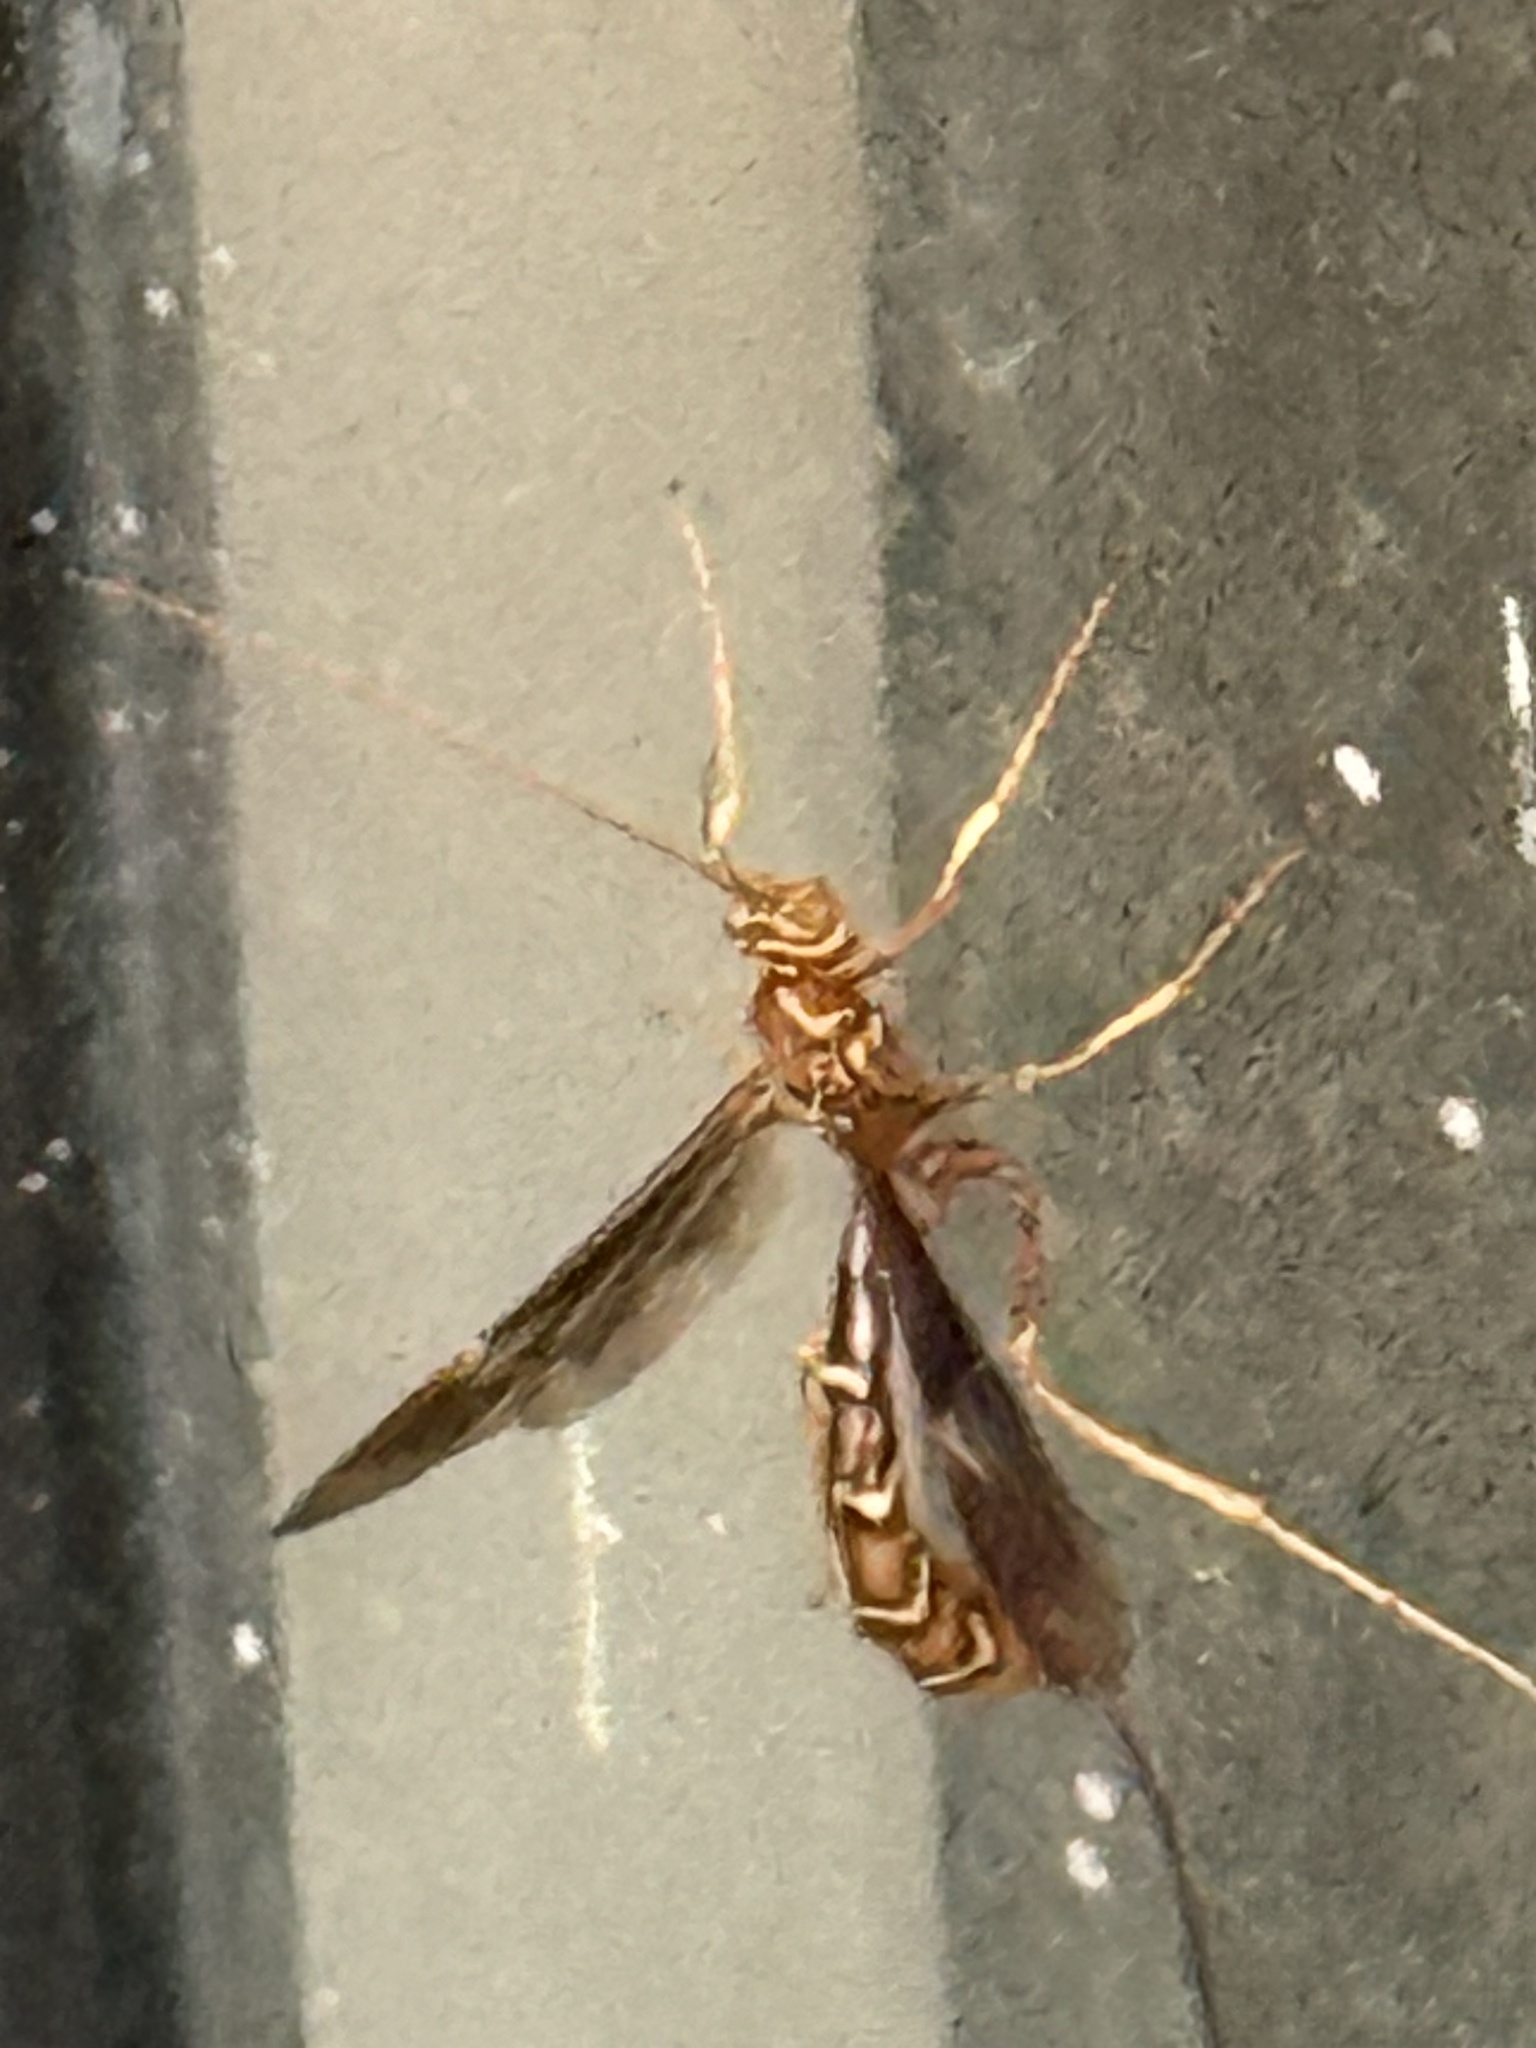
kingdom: Animalia
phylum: Arthropoda
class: Insecta
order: Hymenoptera
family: Ichneumonidae
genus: Megarhyssa
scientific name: Megarhyssa macrura
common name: Long-tailed giant ichneumonid wasp
